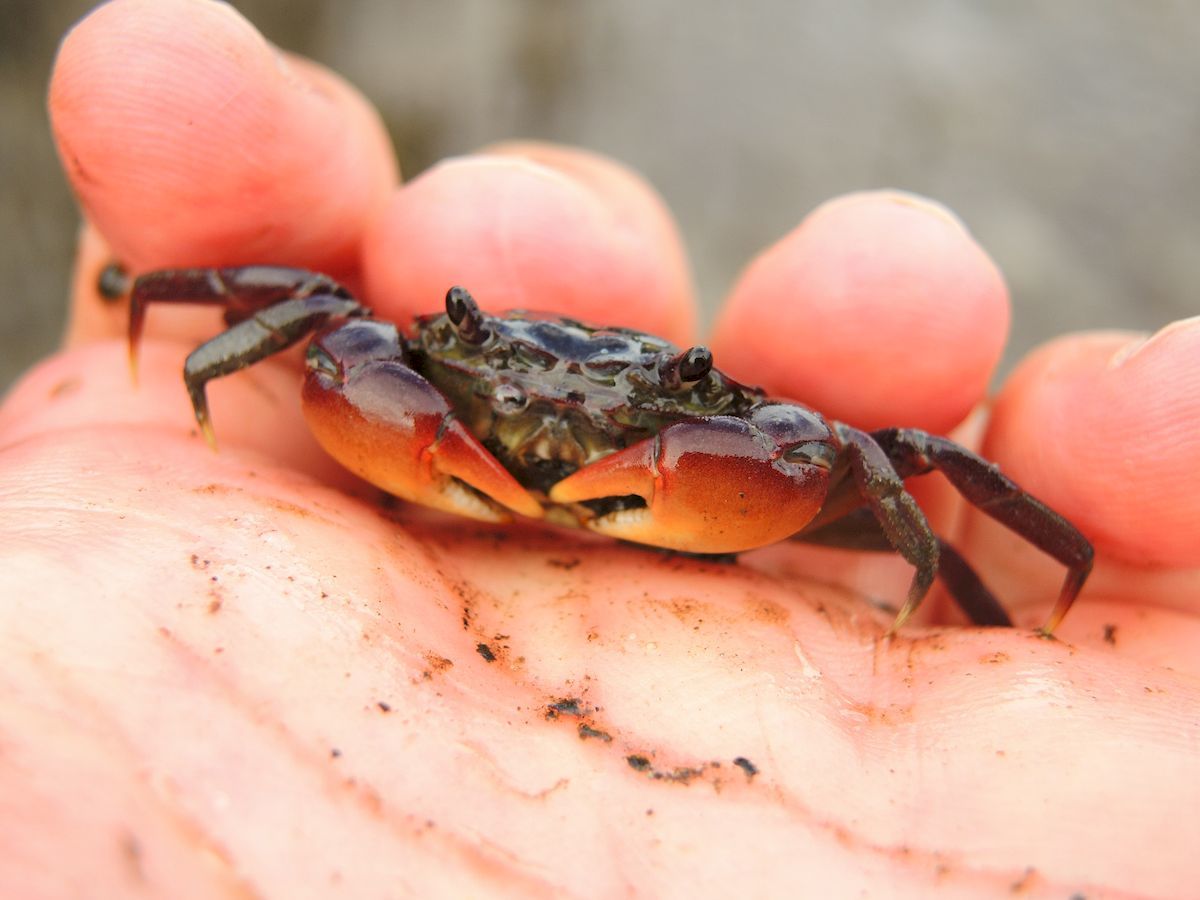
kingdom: Animalia
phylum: Arthropoda
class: Malacostraca
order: Decapoda
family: Varunidae
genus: Paragrapsus
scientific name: Paragrapsus laevis
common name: Smooth shore crab
